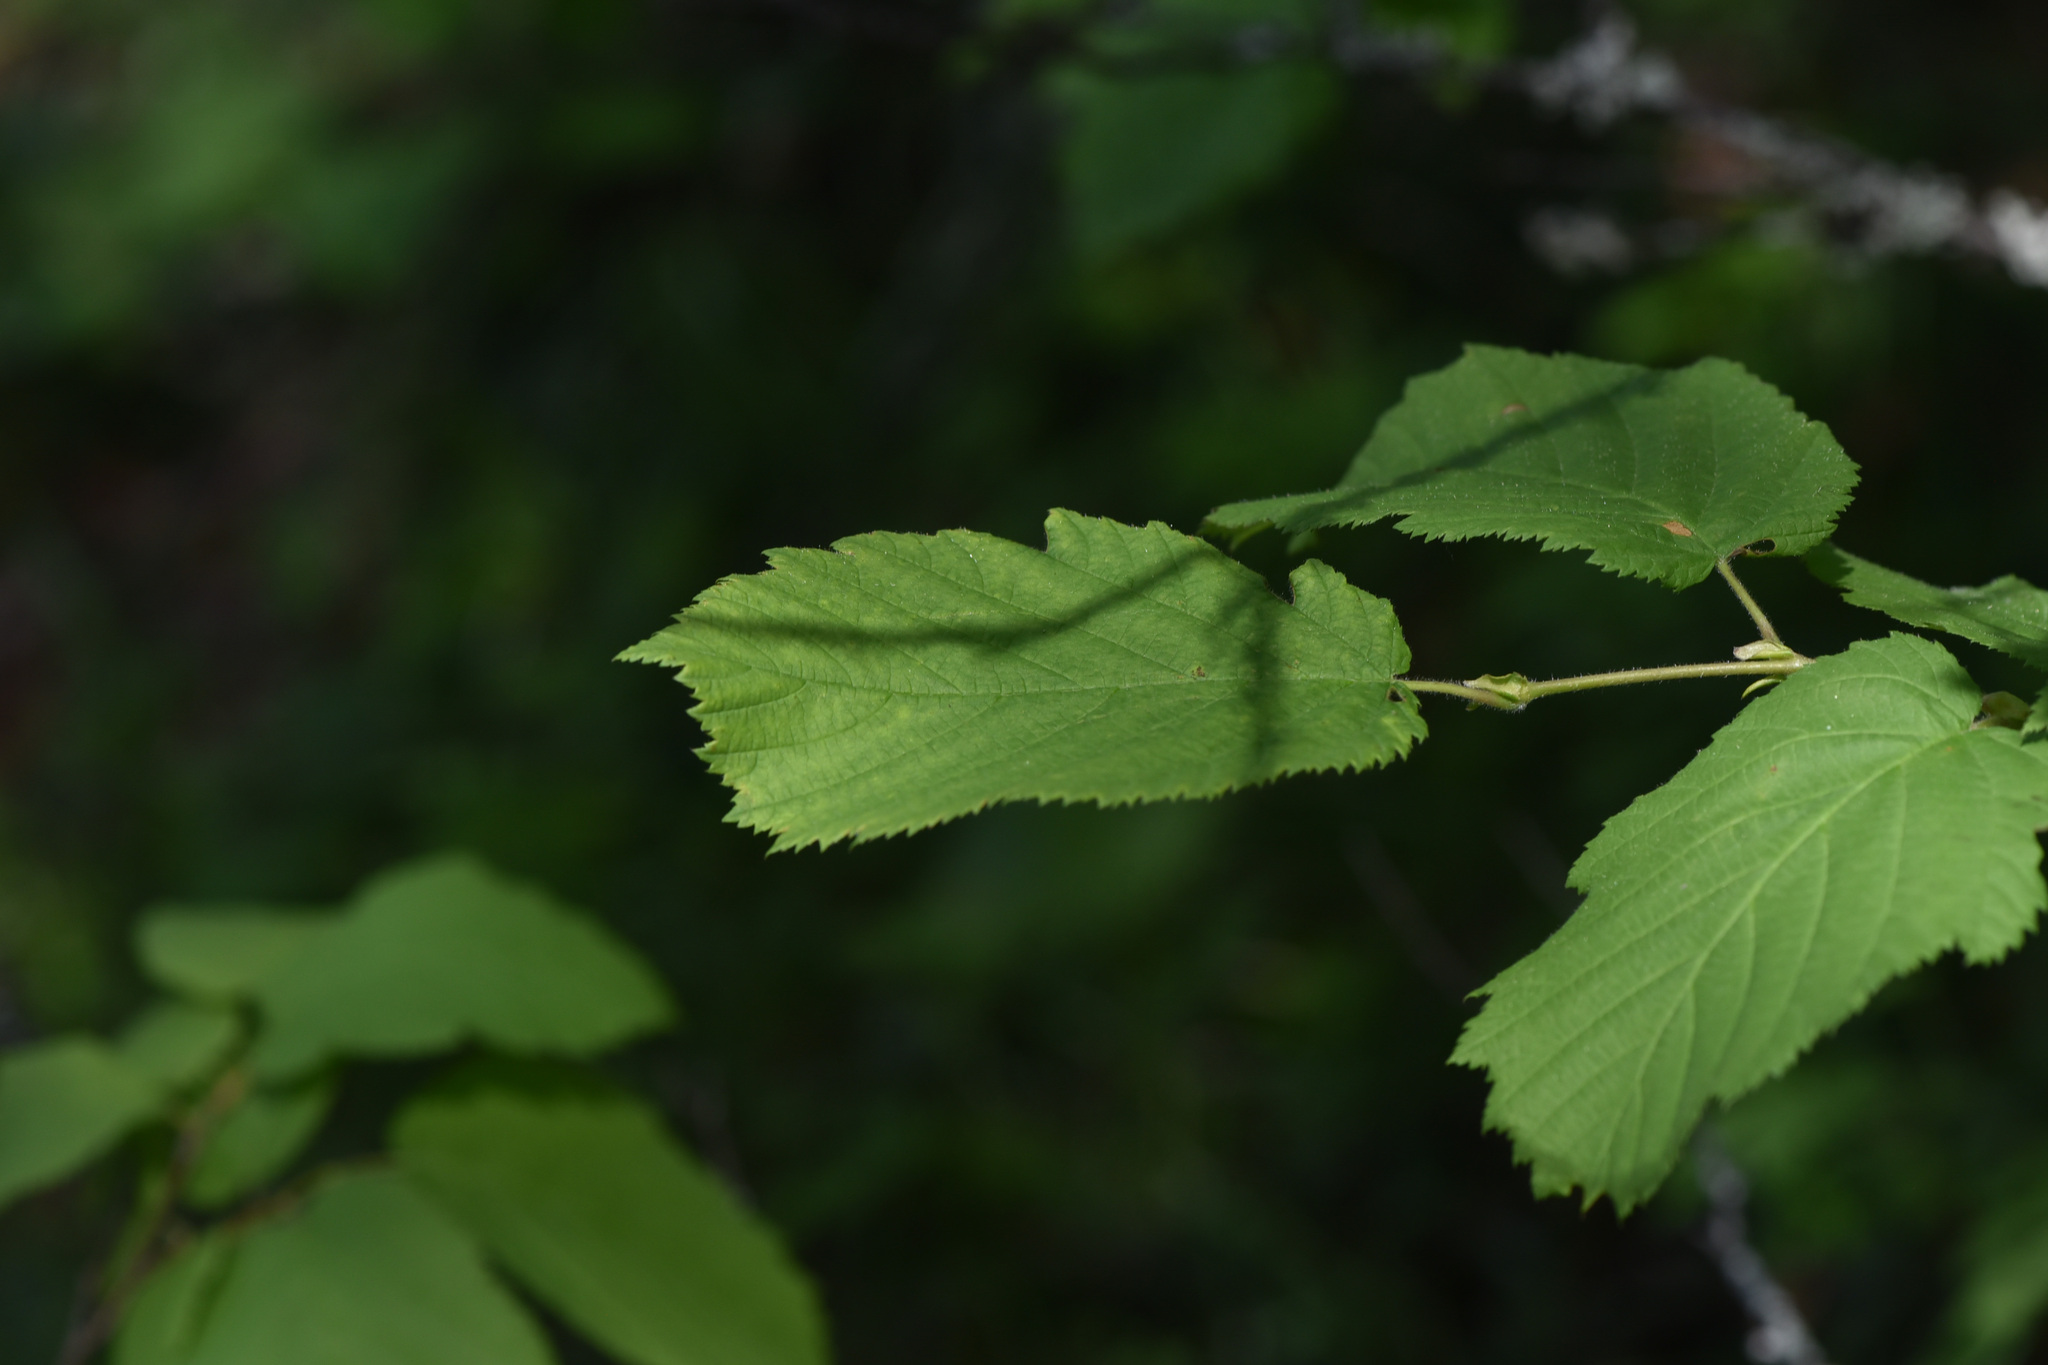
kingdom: Plantae
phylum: Tracheophyta
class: Magnoliopsida
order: Fagales
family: Betulaceae
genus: Corylus
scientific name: Corylus cornuta
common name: Beaked hazel
